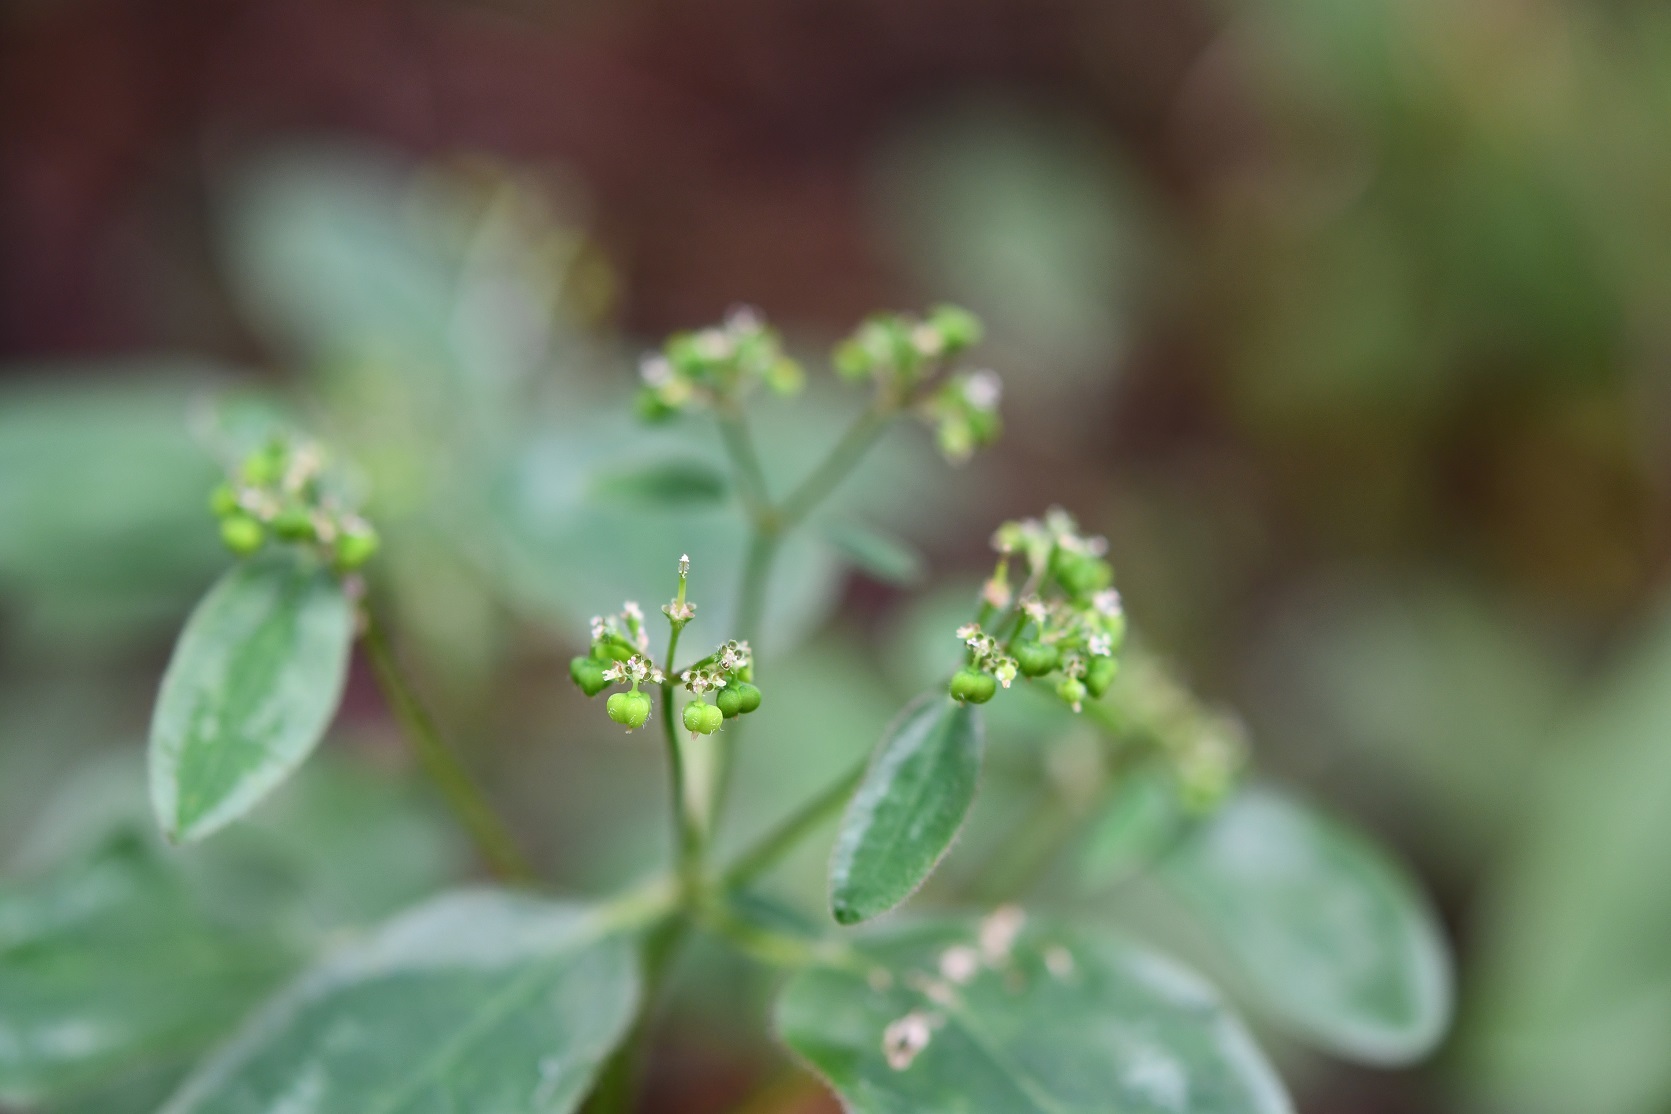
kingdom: Plantae
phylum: Tracheophyta
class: Magnoliopsida
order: Malpighiales
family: Euphorbiaceae
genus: Euphorbia
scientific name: Euphorbia graminea
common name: Grassleaf spurge
